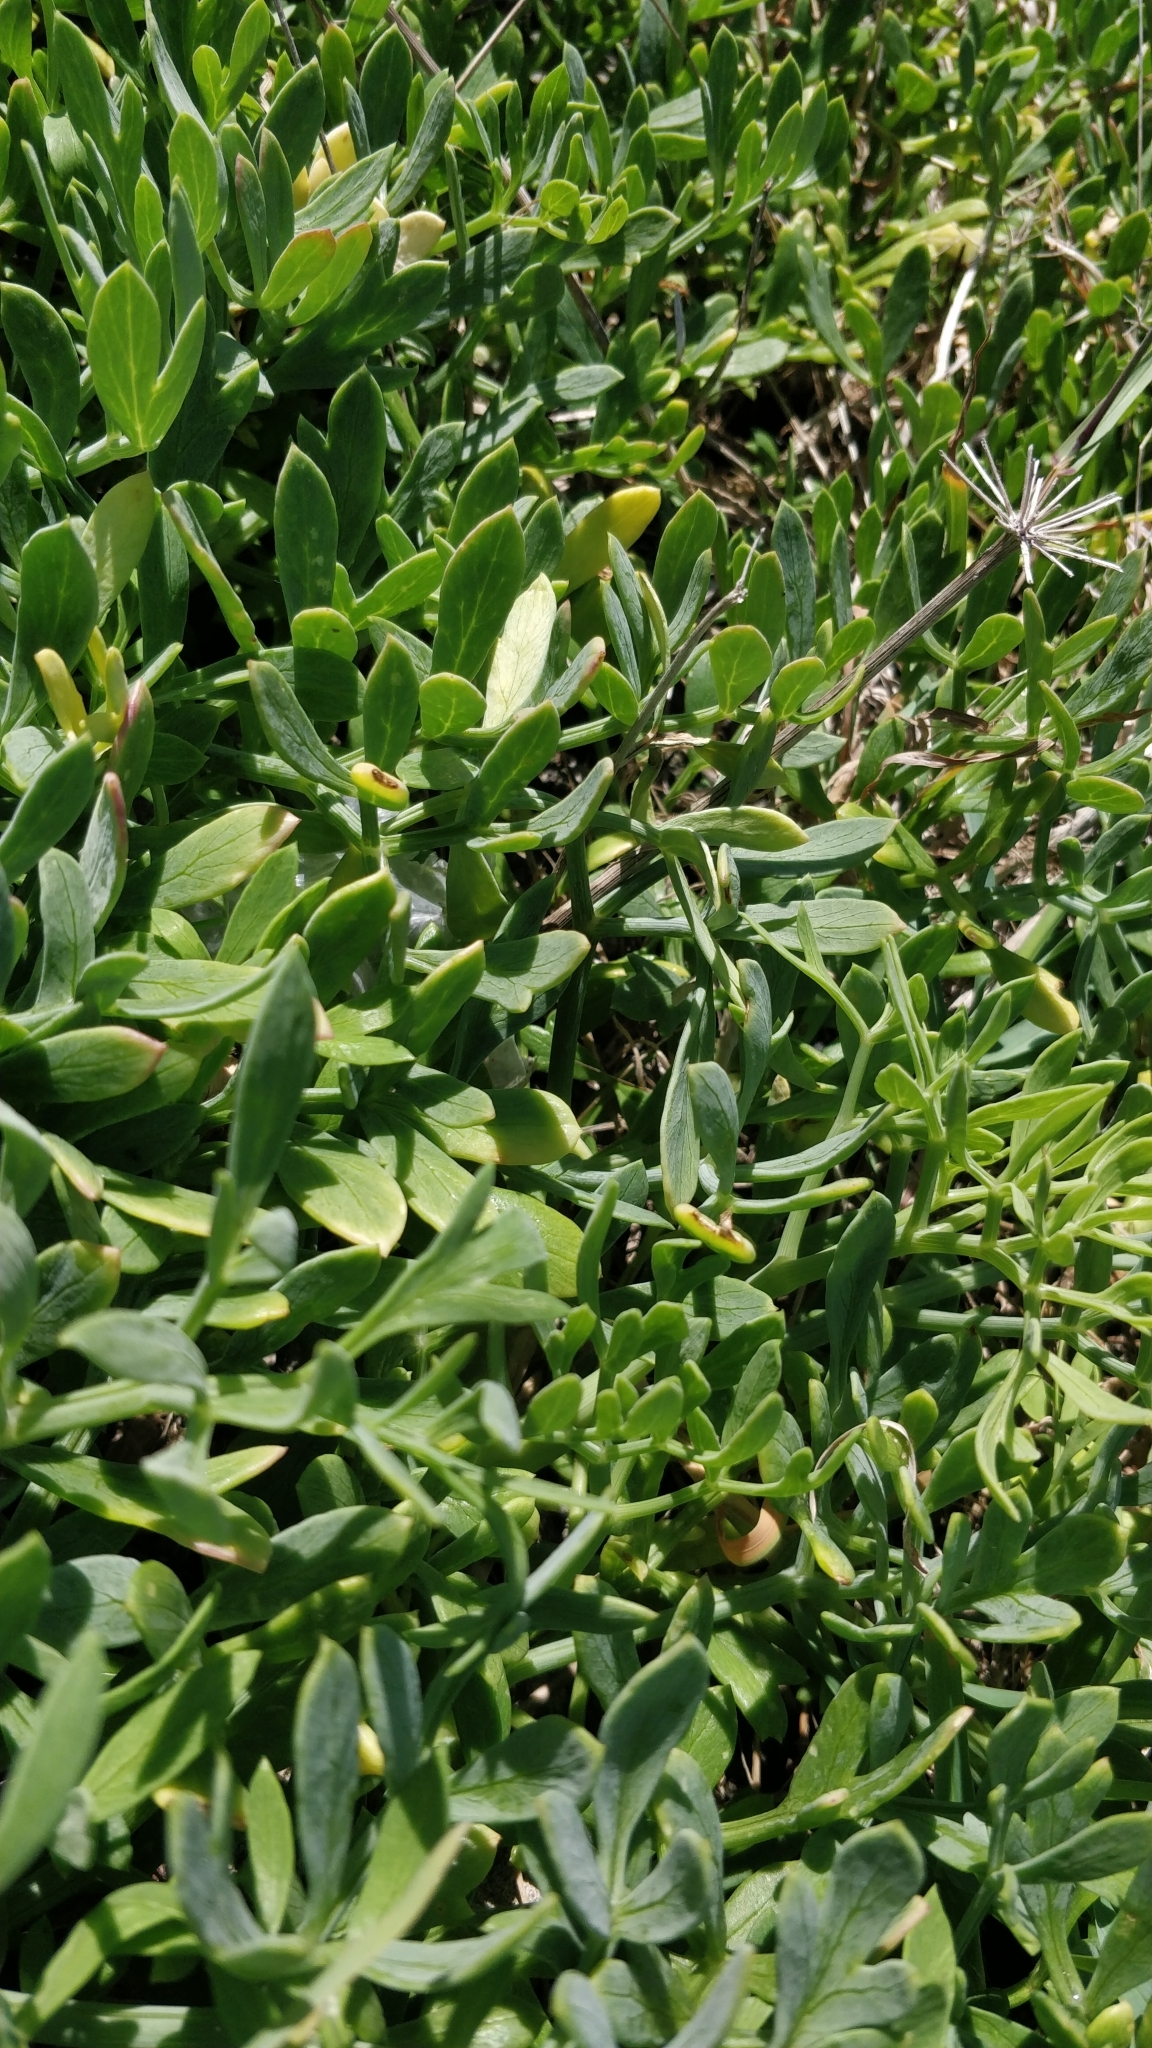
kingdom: Plantae
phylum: Tracheophyta
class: Magnoliopsida
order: Apiales
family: Apiaceae
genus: Crithmum
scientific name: Crithmum maritimum
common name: Rock samphire
